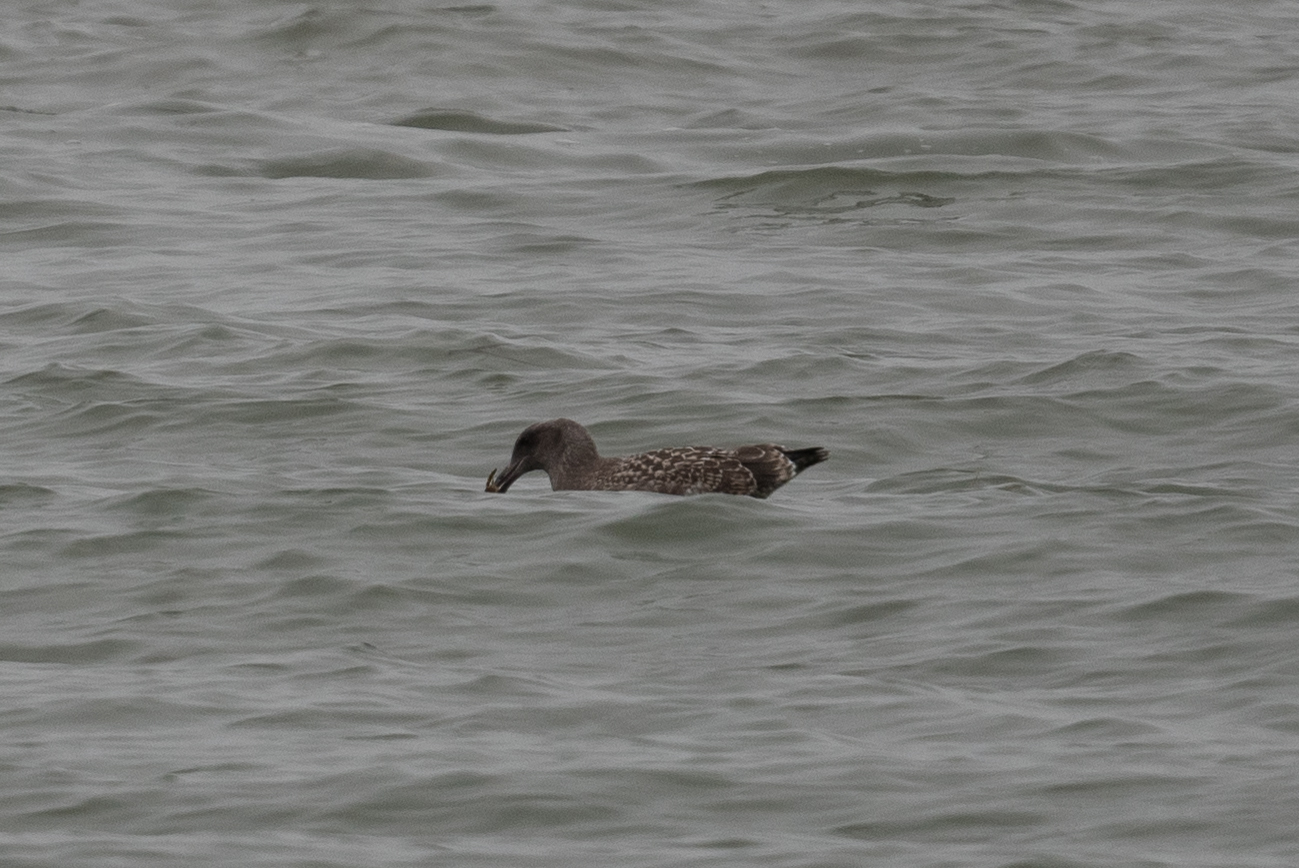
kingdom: Animalia
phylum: Chordata
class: Aves
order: Charadriiformes
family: Laridae
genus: Larus
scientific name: Larus occidentalis
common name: Western gull
